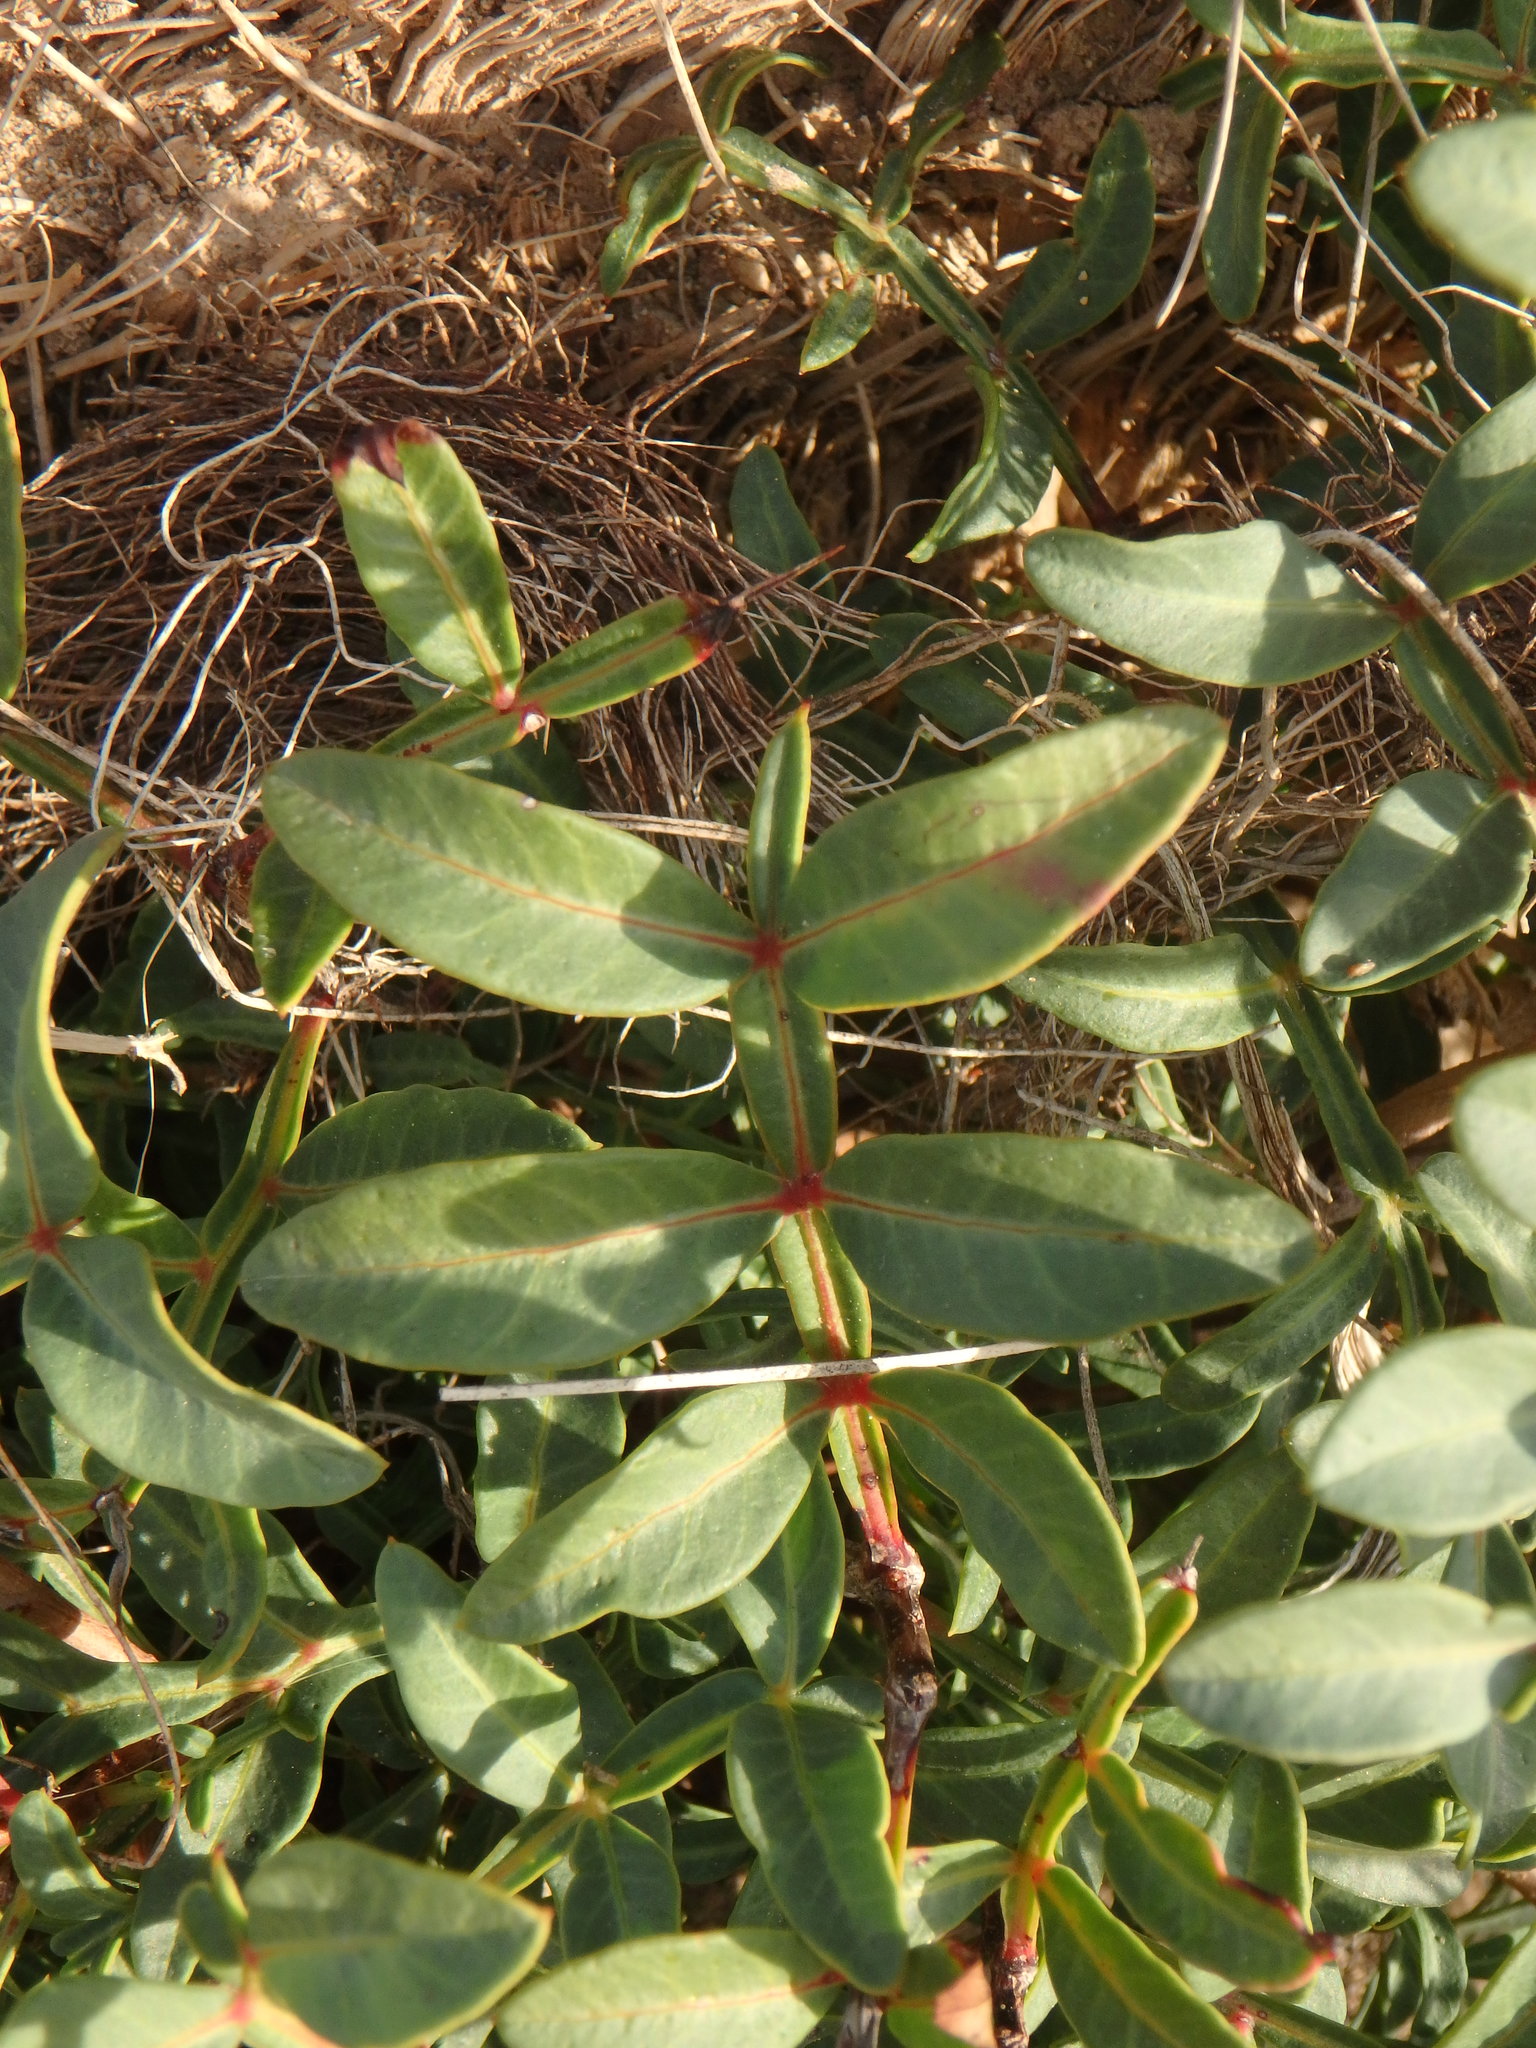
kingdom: Plantae
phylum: Tracheophyta
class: Magnoliopsida
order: Sapindales
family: Anacardiaceae
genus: Pistacia
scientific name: Pistacia lentiscus
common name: Lentisk
